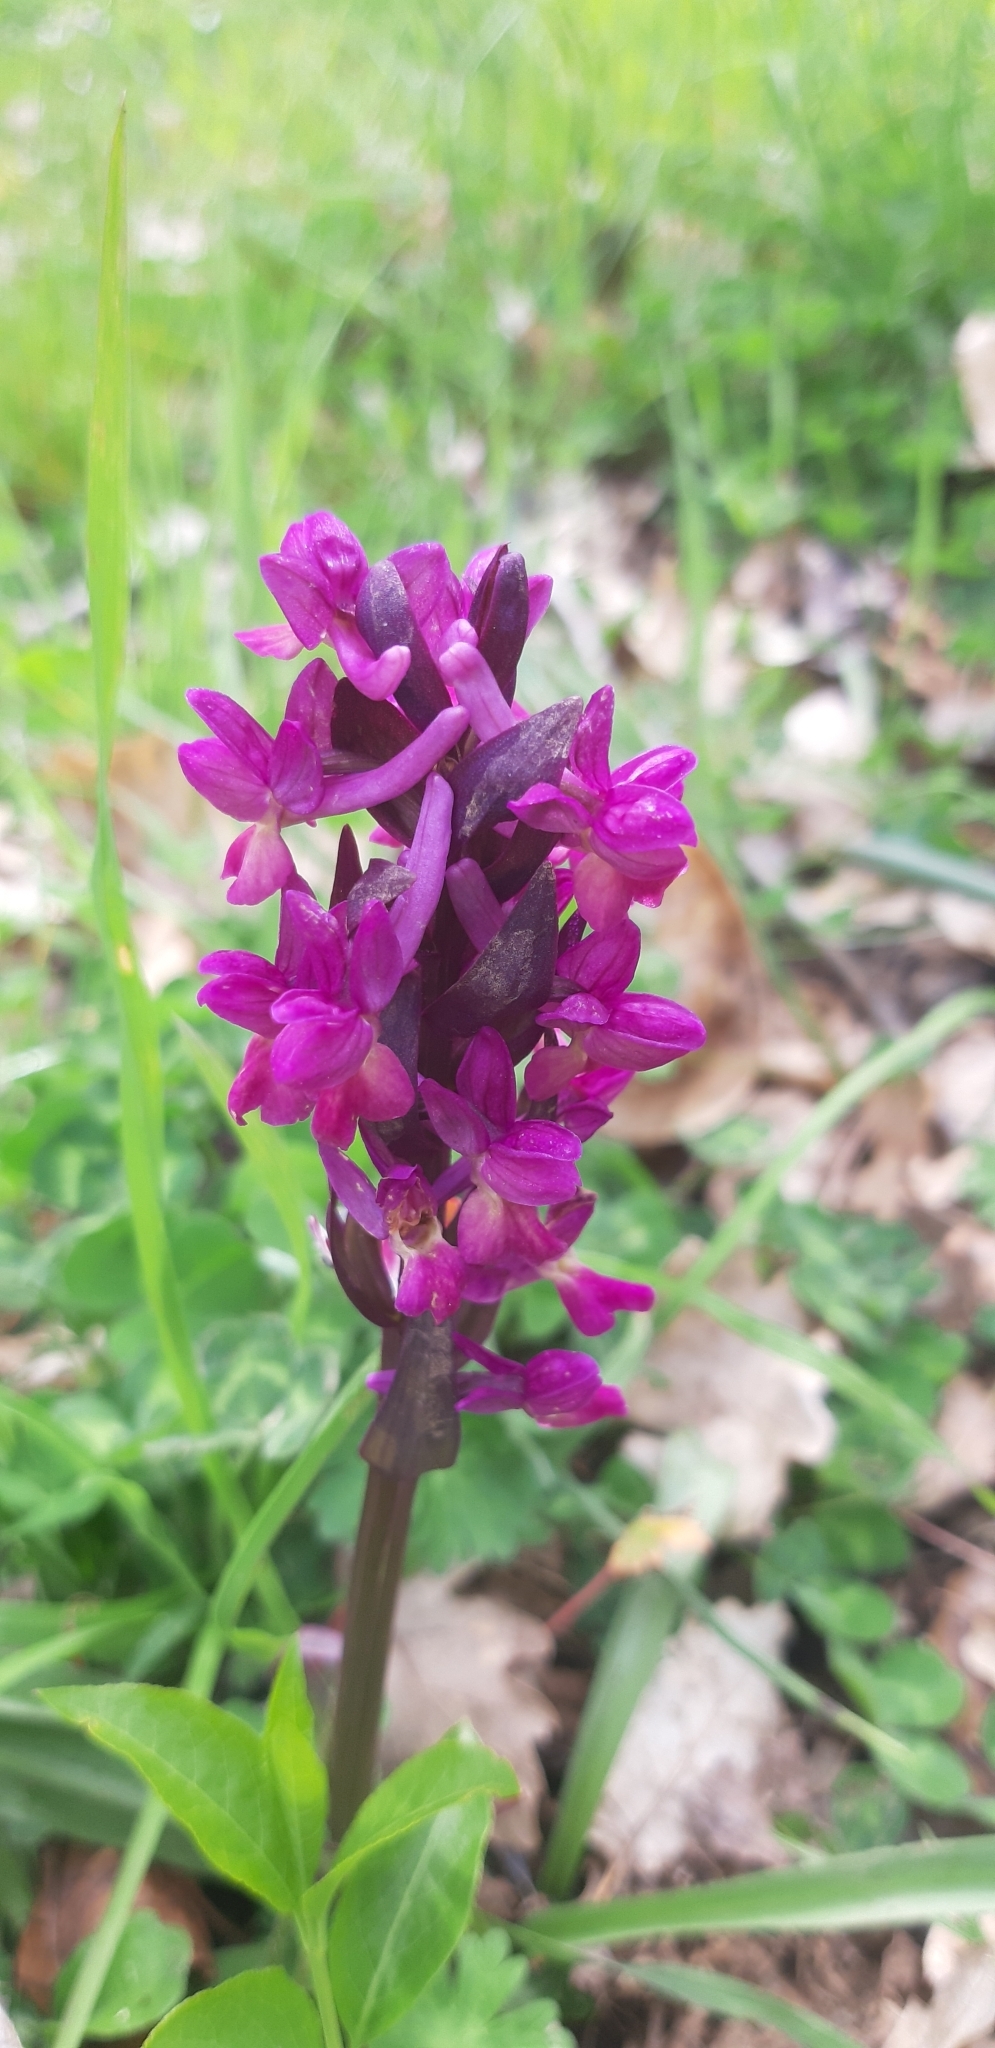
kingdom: Plantae
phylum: Tracheophyta
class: Liliopsida
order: Asparagales
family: Orchidaceae
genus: Dactylorhiza
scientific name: Dactylorhiza romana
